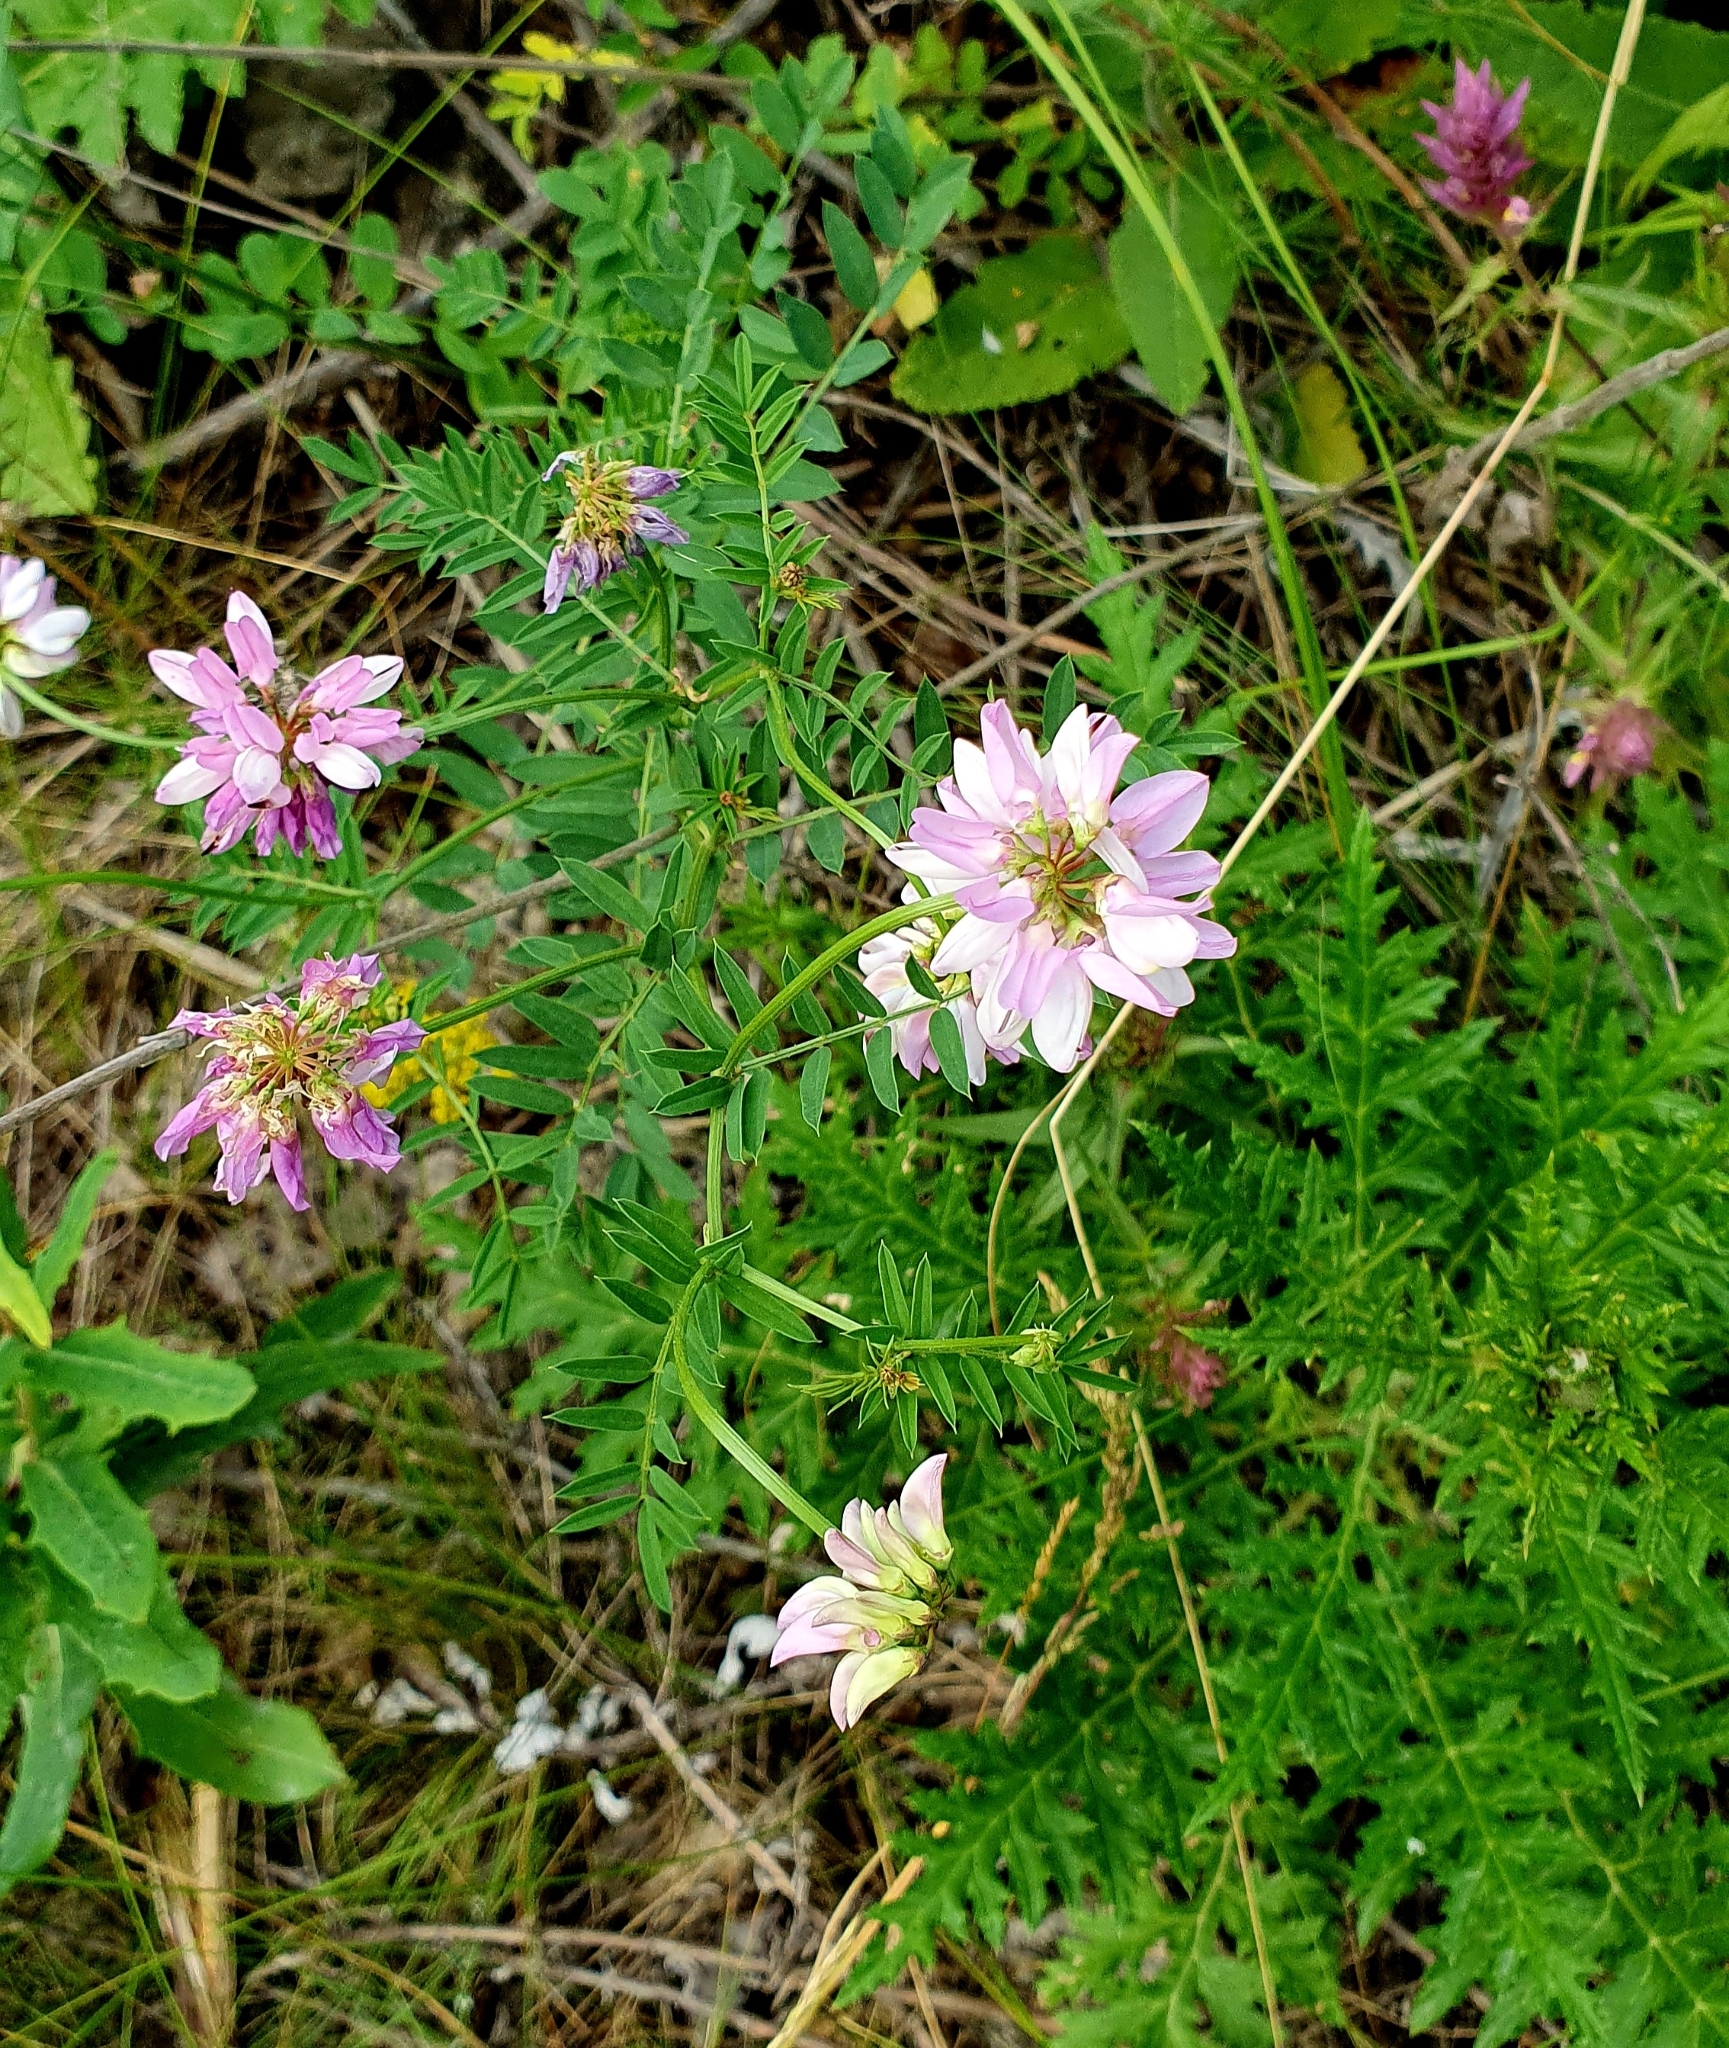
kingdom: Plantae
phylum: Tracheophyta
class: Magnoliopsida
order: Fabales
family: Fabaceae
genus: Coronilla
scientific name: Coronilla varia
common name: Crownvetch
